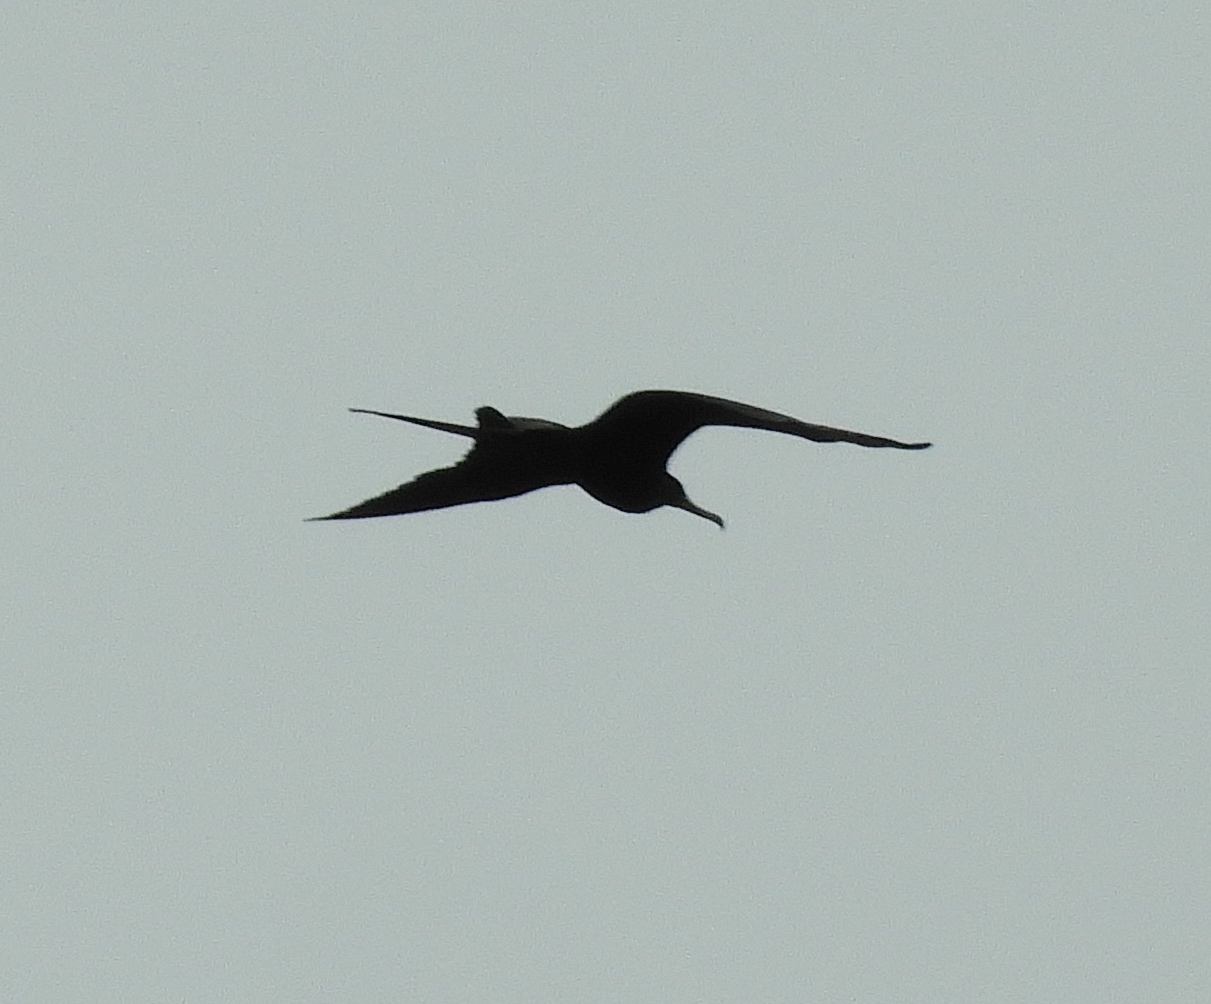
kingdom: Animalia
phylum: Chordata
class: Aves
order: Suliformes
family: Fregatidae
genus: Fregata
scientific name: Fregata magnificens
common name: Magnificent frigatebird
